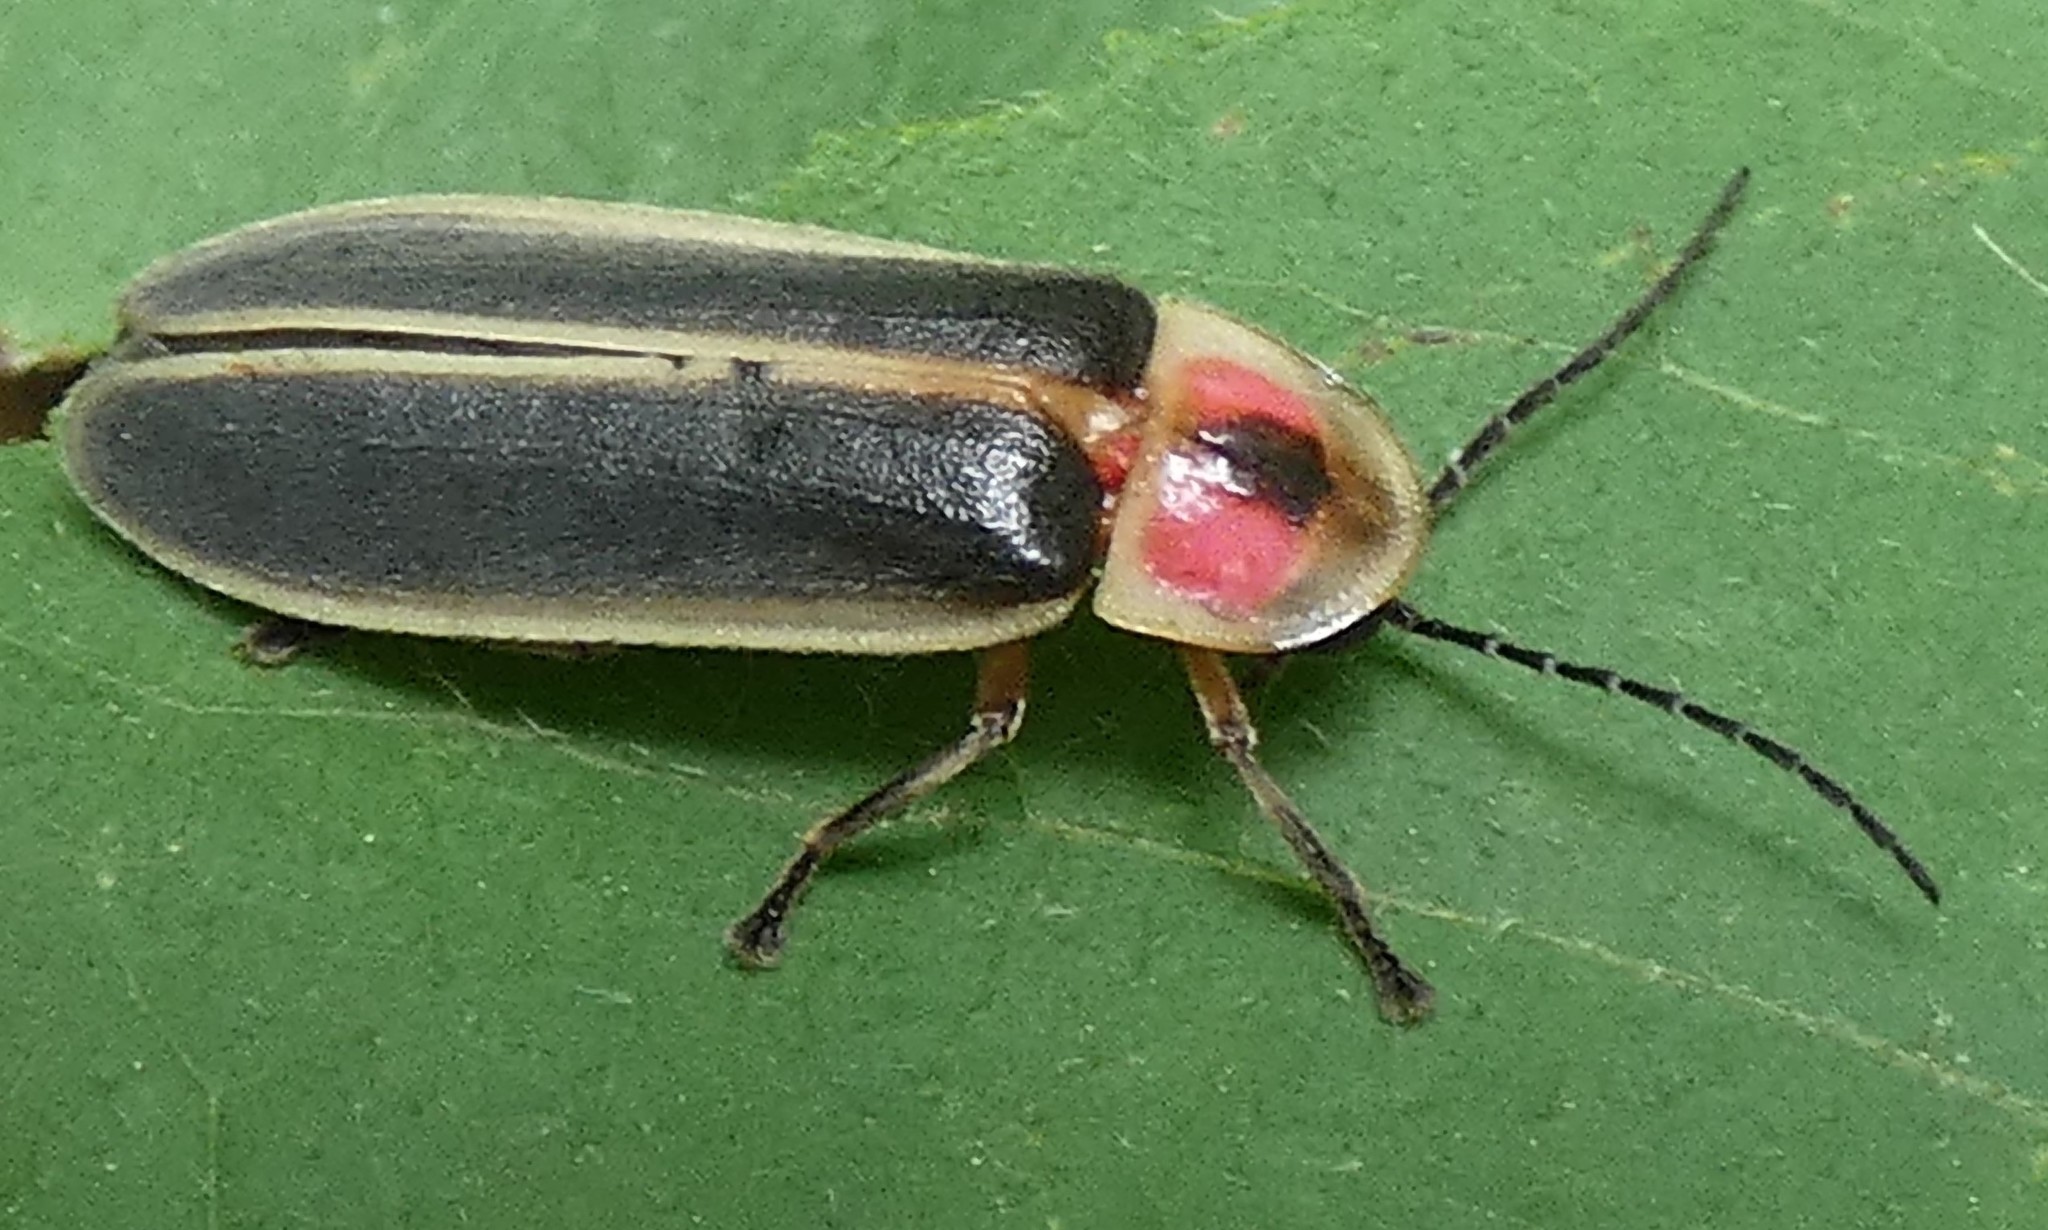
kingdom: Animalia
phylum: Arthropoda
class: Insecta
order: Coleoptera
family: Lampyridae
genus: Photinus
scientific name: Photinus pyralis
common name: Big dipper firefly
